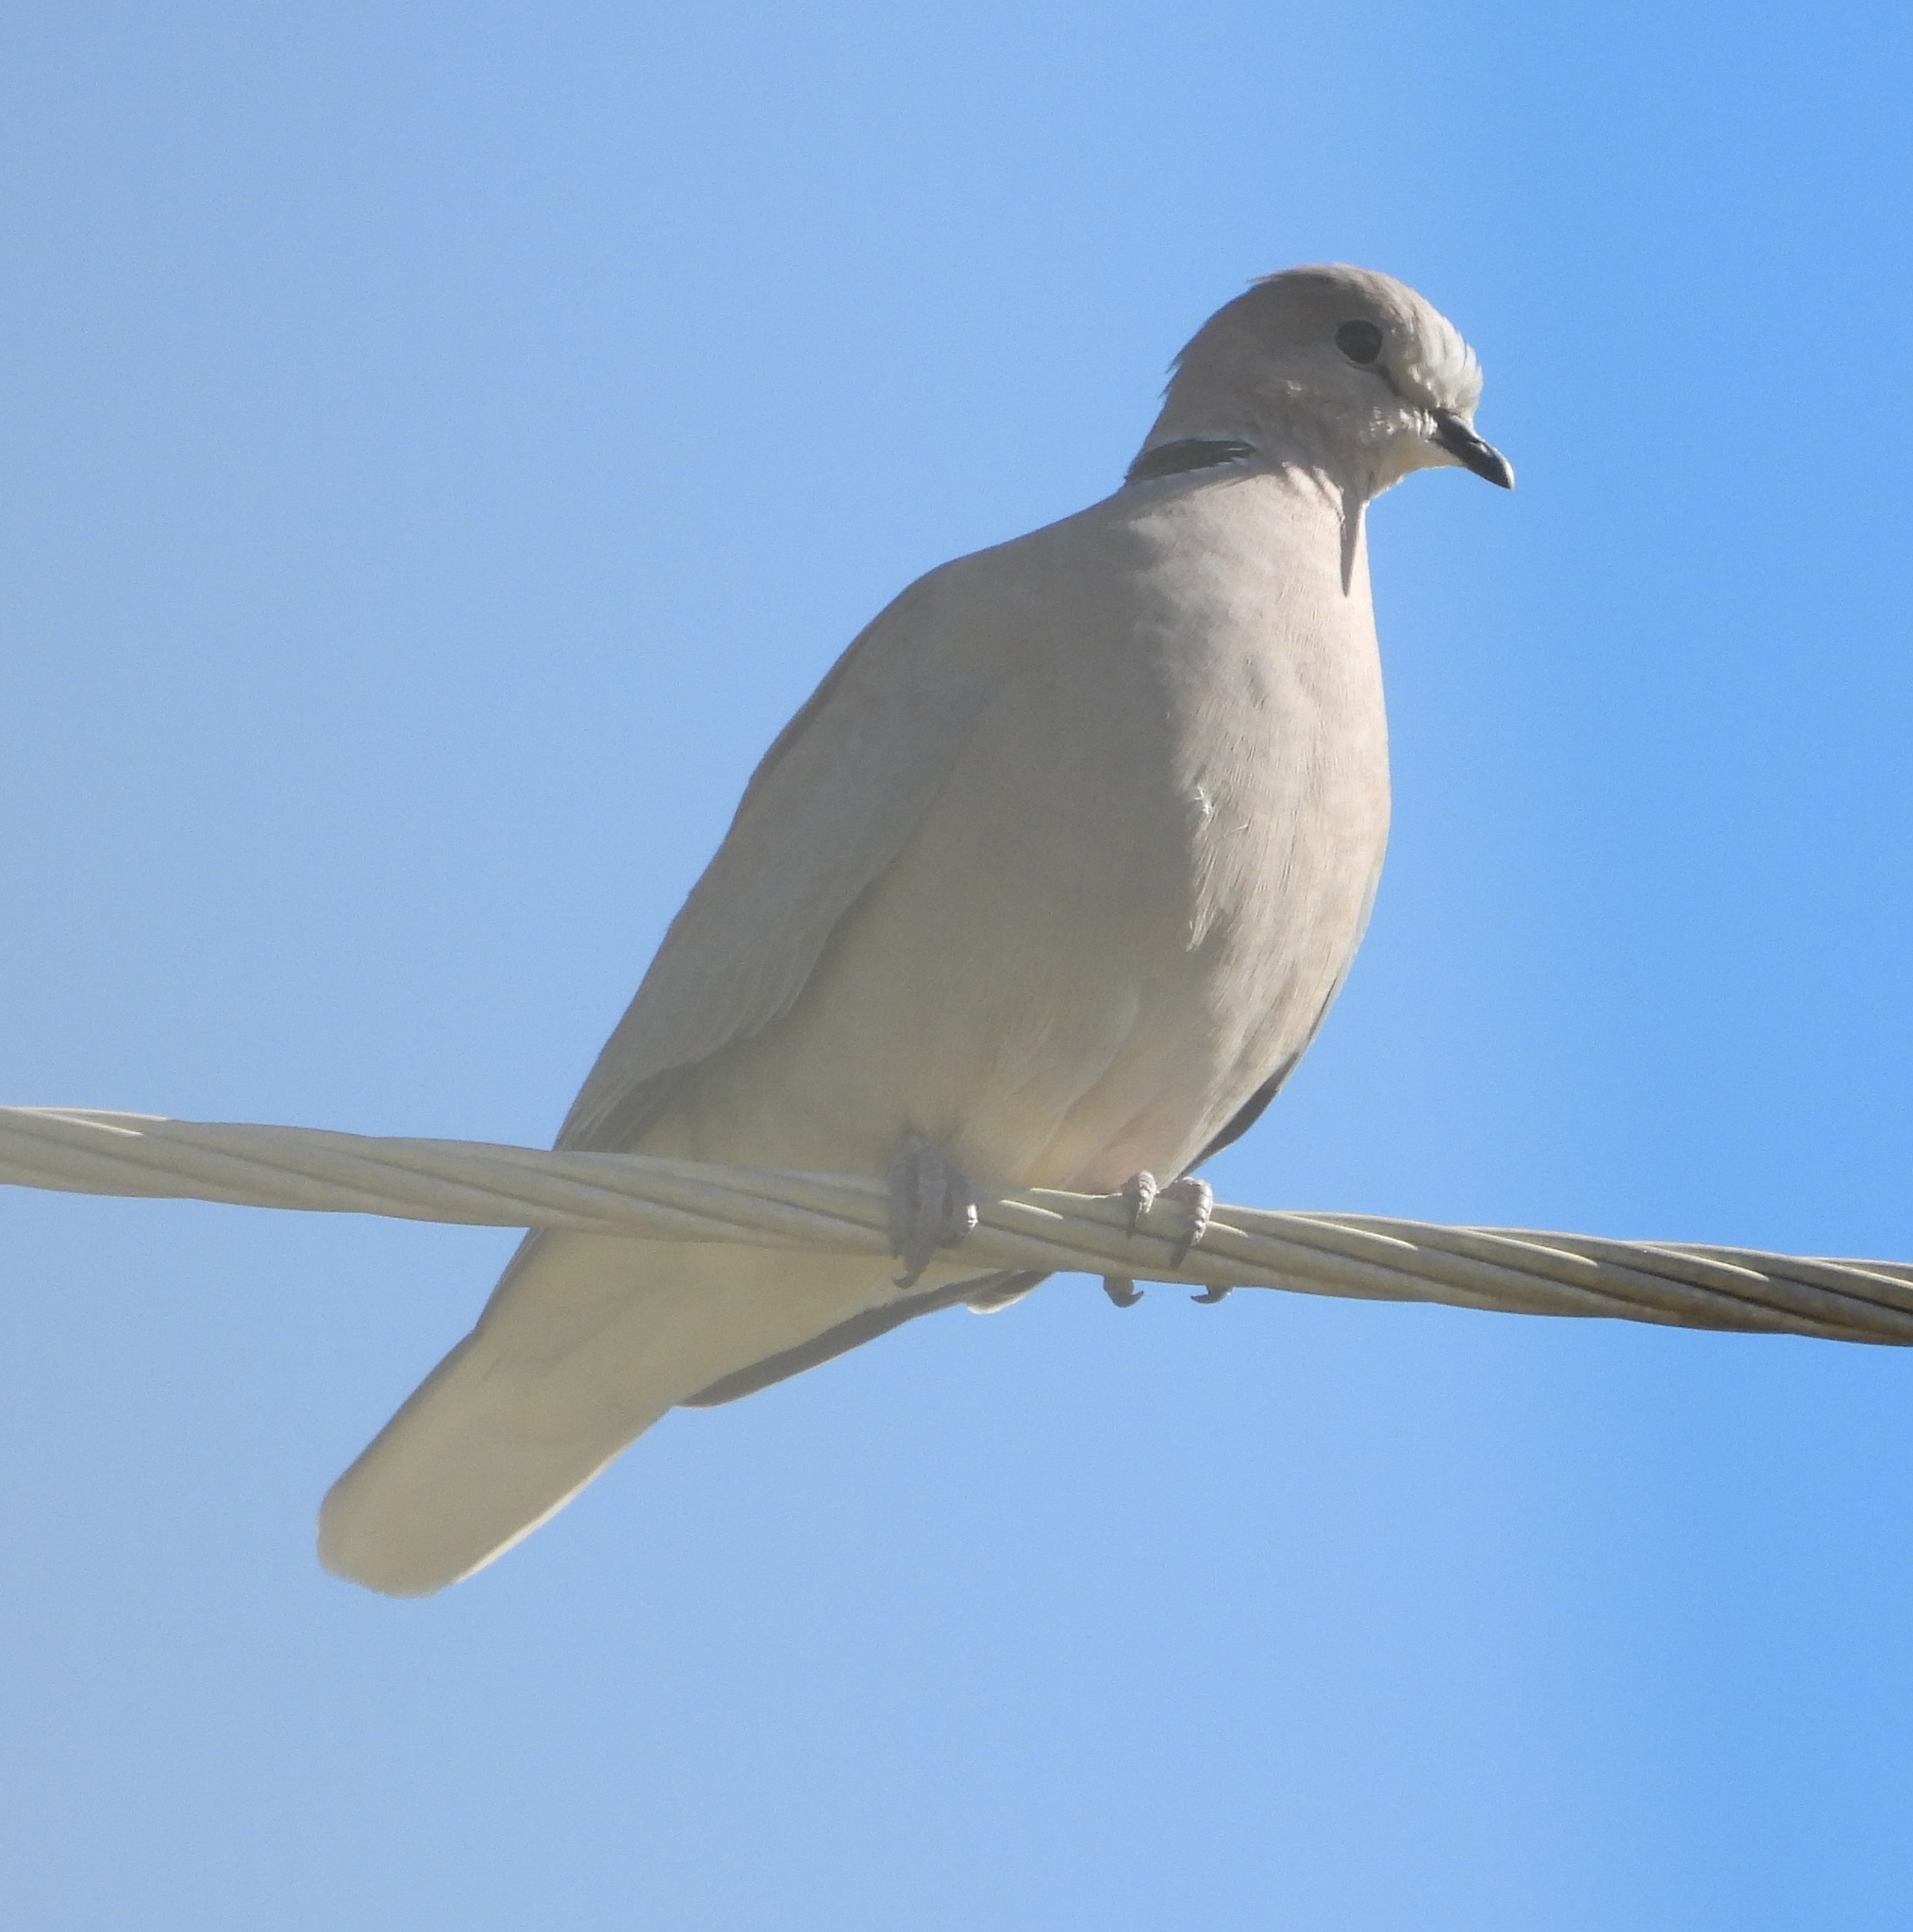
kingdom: Animalia
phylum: Chordata
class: Aves
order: Columbiformes
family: Columbidae
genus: Streptopelia
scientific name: Streptopelia capicola
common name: Ring-necked dove
